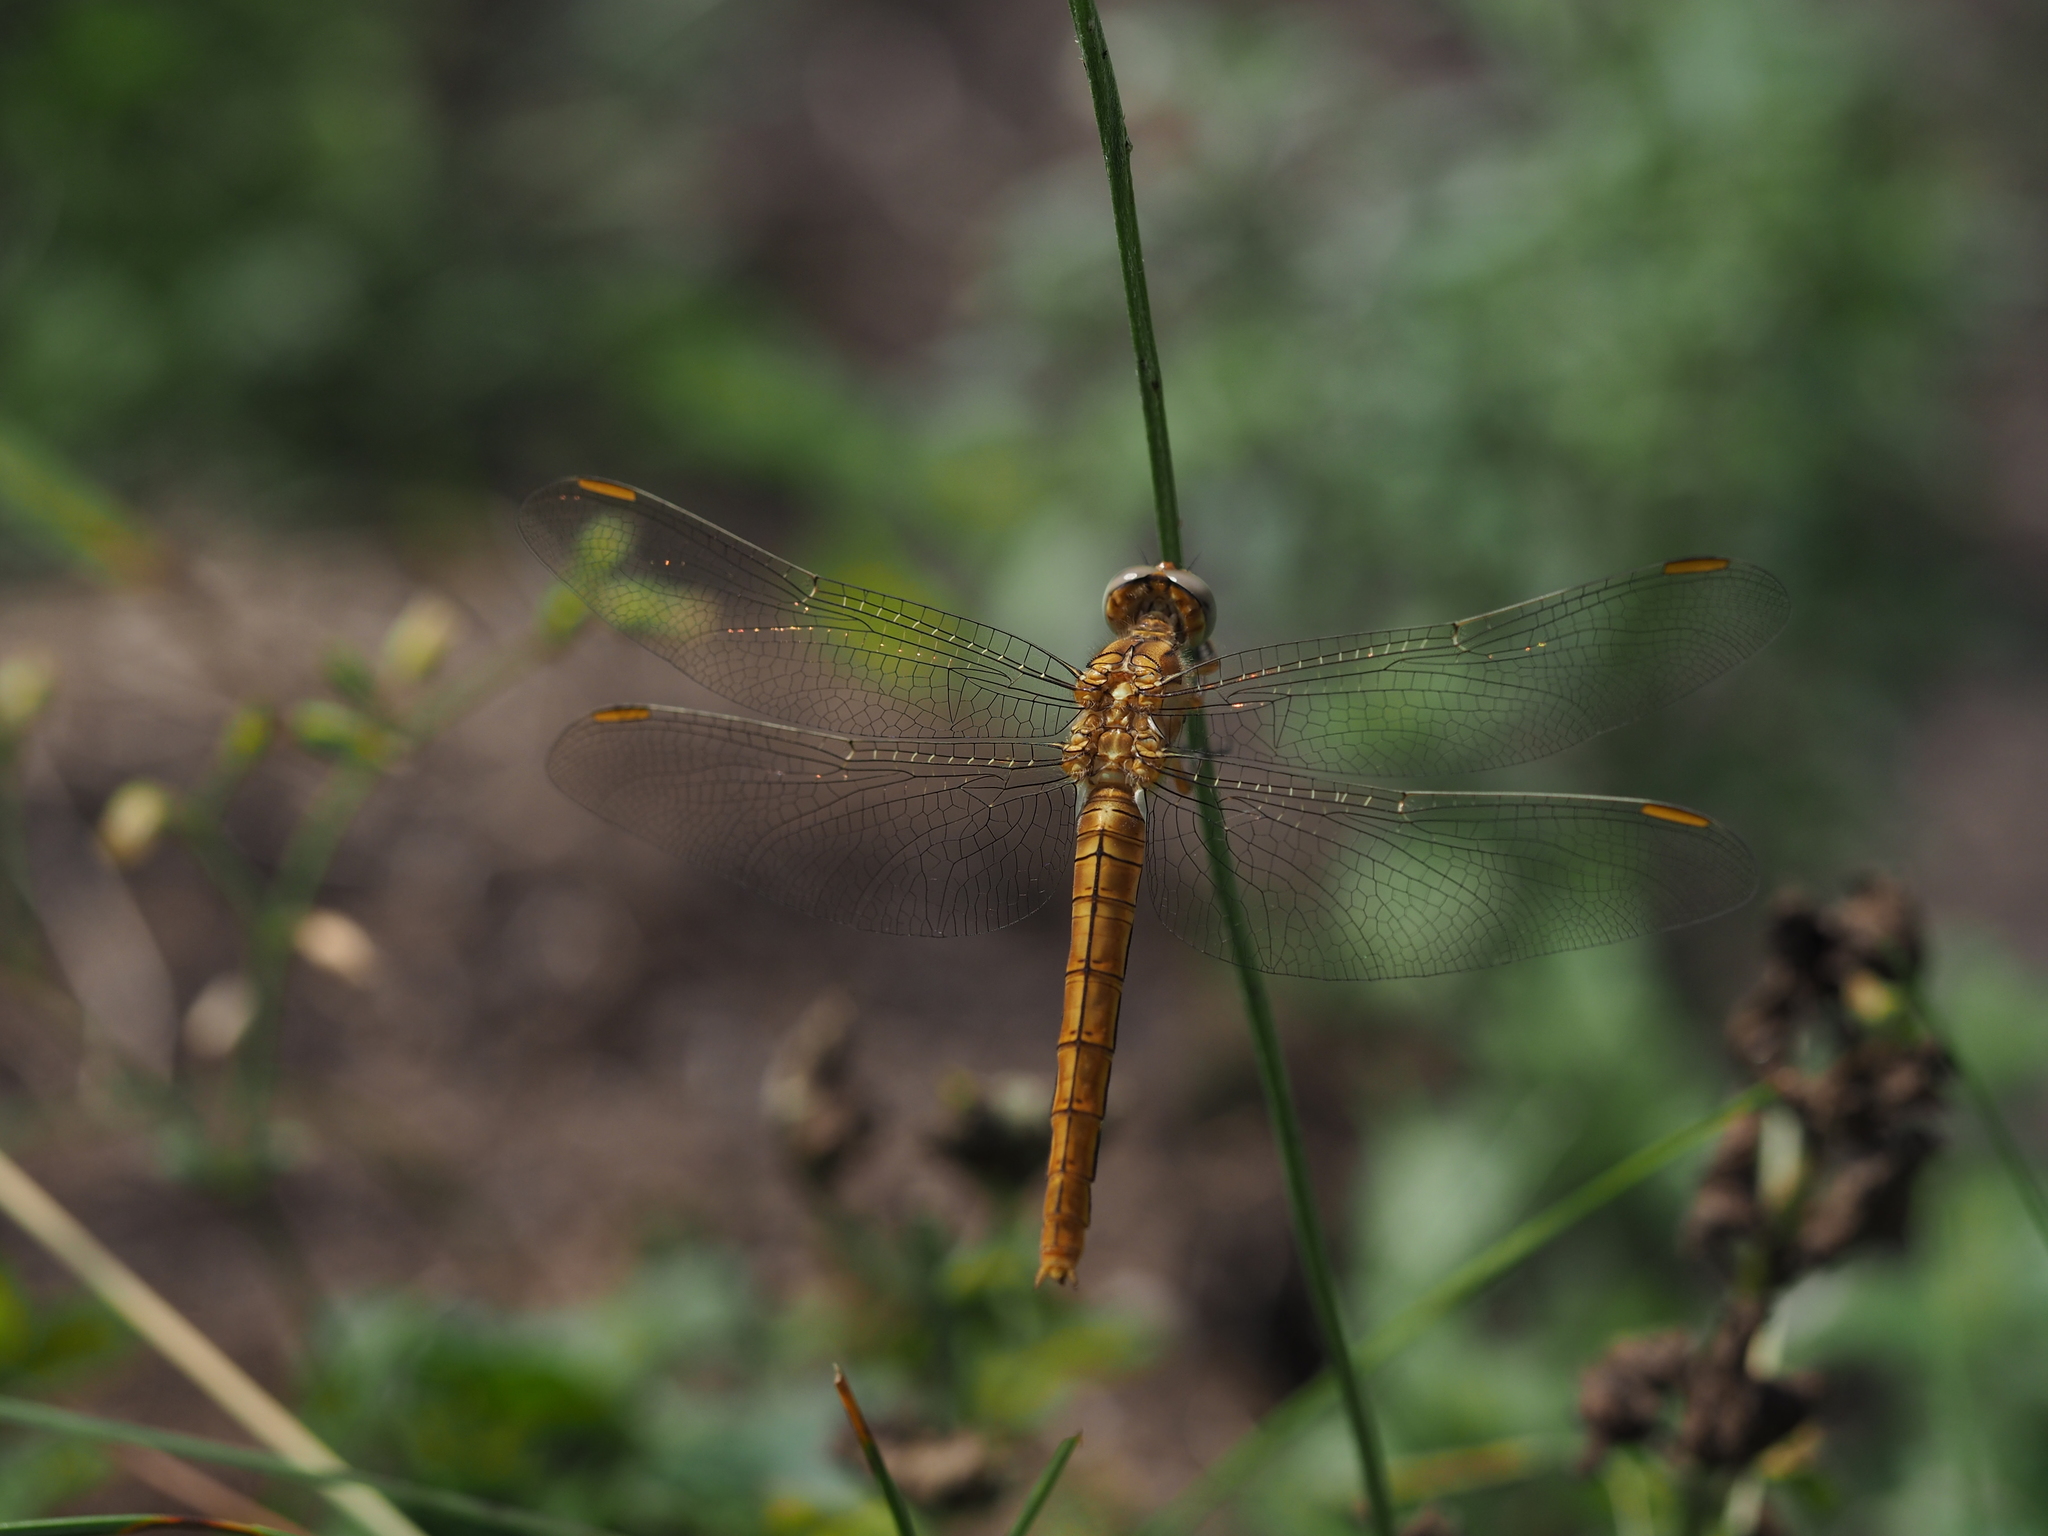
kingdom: Animalia
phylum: Arthropoda
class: Insecta
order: Odonata
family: Libellulidae
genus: Orthetrum
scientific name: Orthetrum coerulescens
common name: Keeled skimmer
